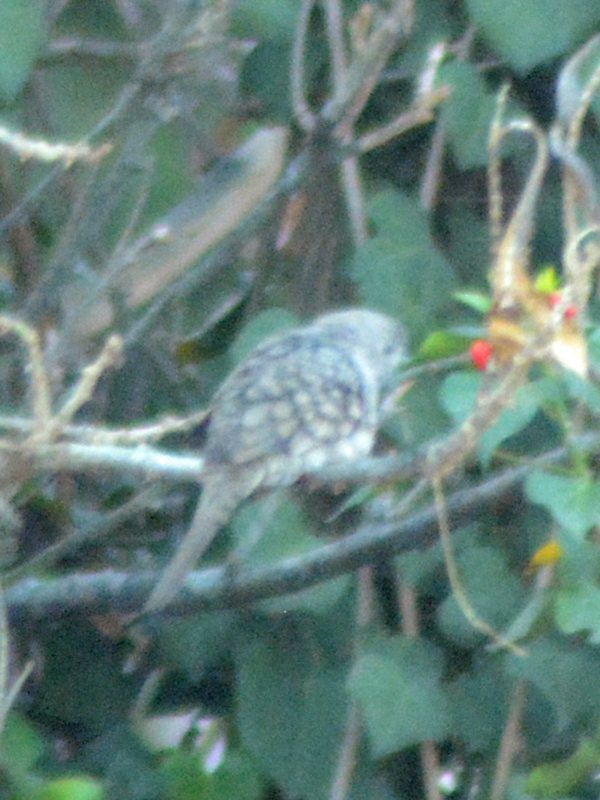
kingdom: Animalia
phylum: Chordata
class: Aves
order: Columbiformes
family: Columbidae
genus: Columbina
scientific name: Columbina inca
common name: Inca dove
